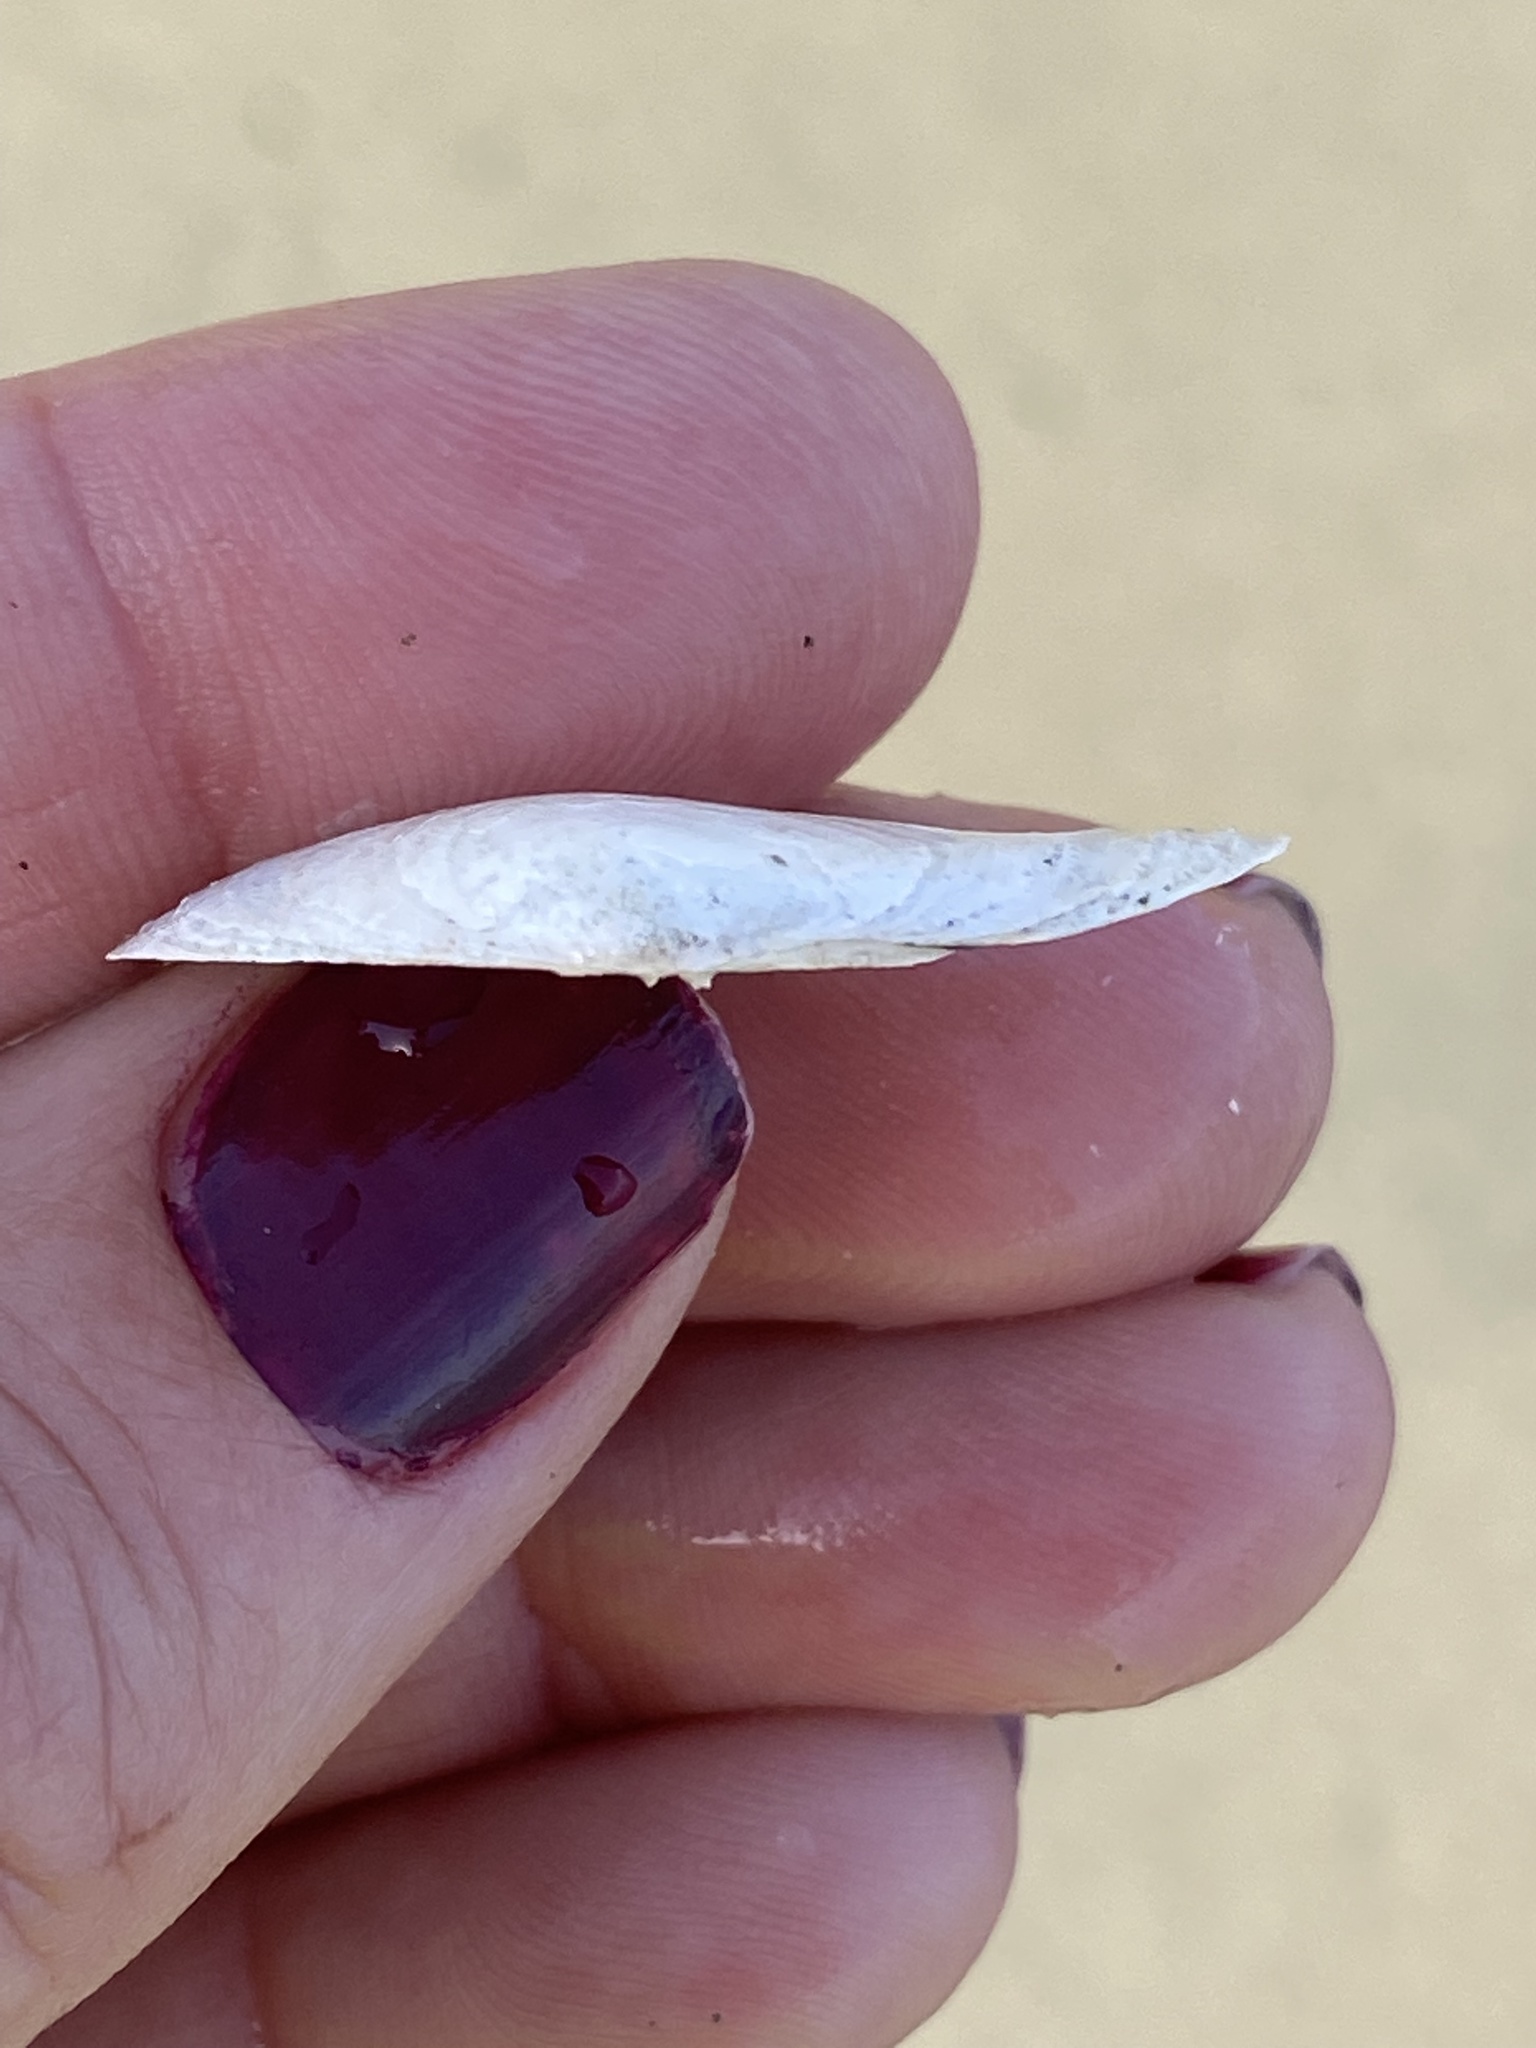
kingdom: Animalia
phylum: Mollusca
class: Bivalvia
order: Cardiida
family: Tellinidae
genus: Macoma
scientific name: Macoma nasuta
